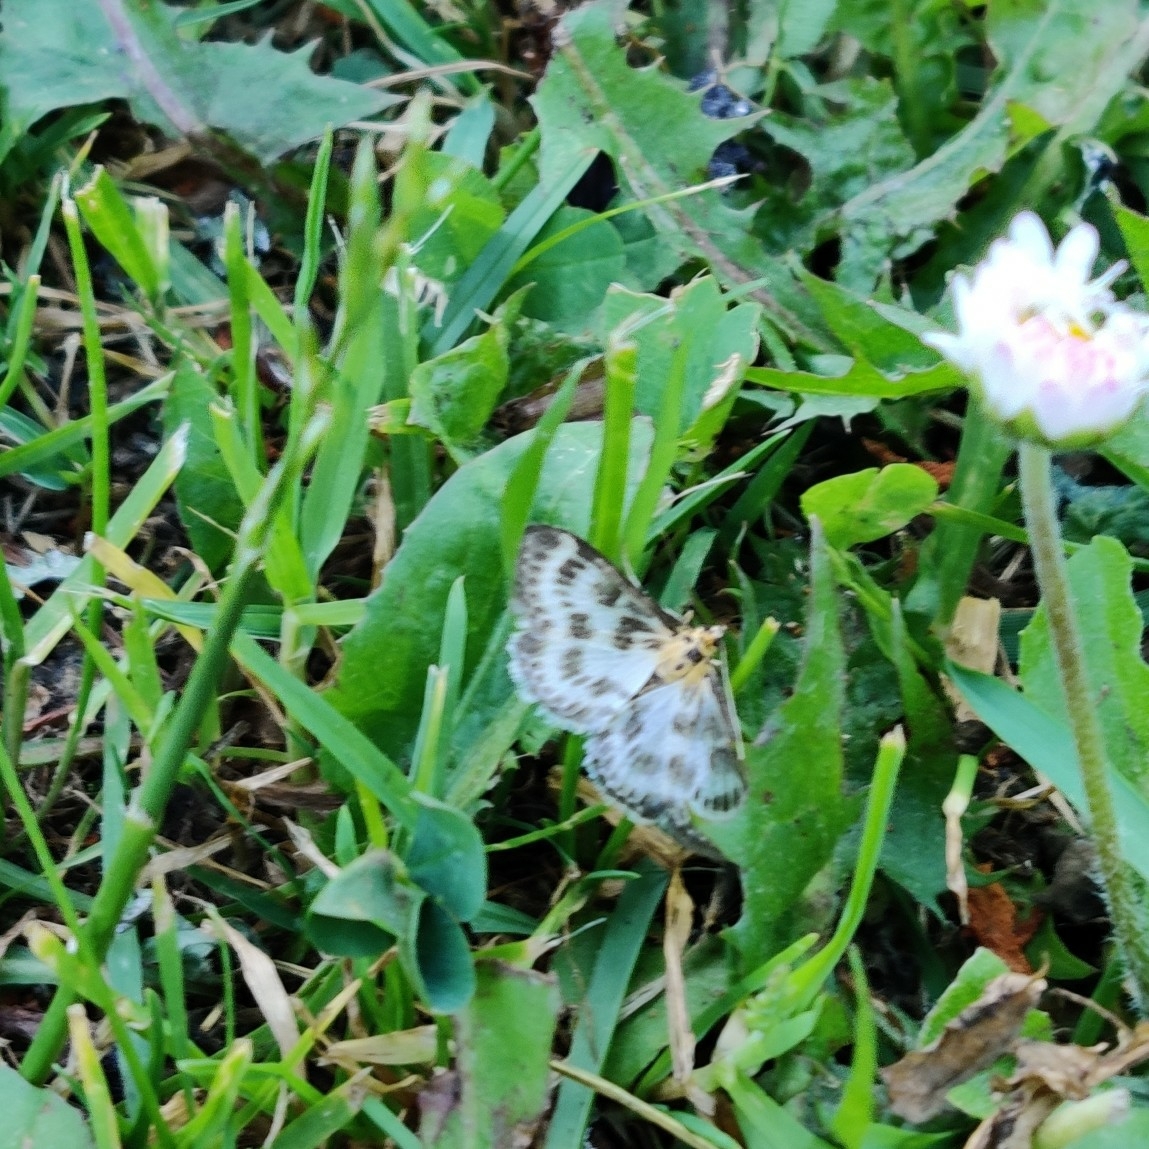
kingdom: Animalia
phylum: Arthropoda
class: Insecta
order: Lepidoptera
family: Crambidae
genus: Anania
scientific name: Anania hortulata
